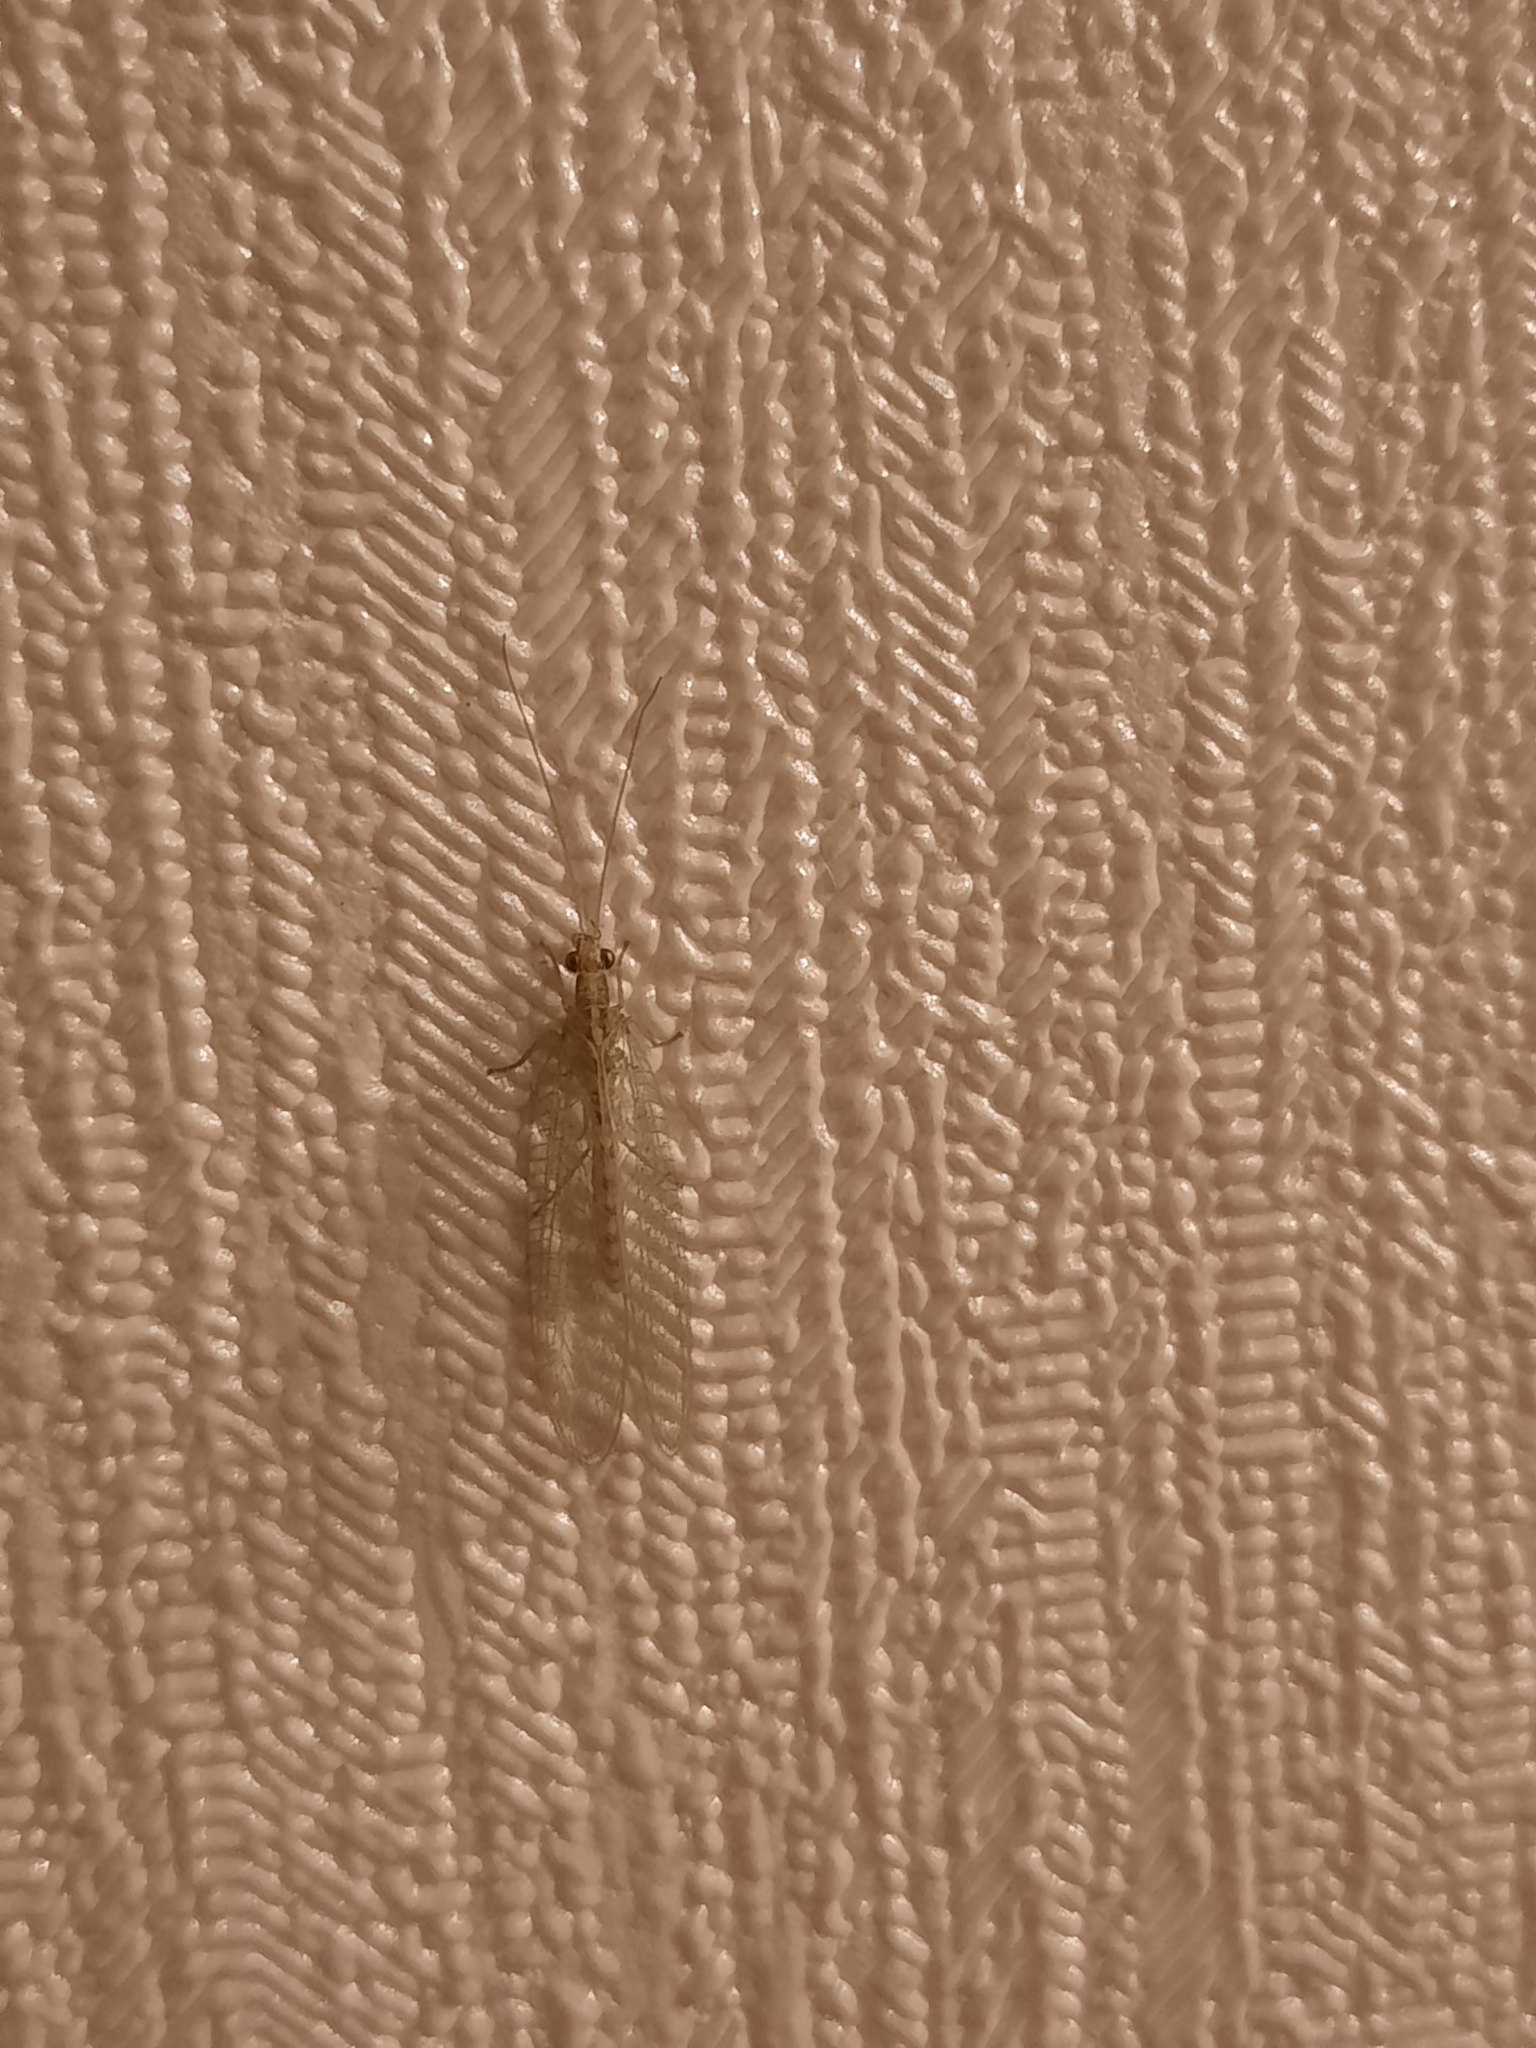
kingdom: Animalia
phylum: Arthropoda
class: Insecta
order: Neuroptera
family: Chrysopidae
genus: Chrysoperla
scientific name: Chrysoperla
